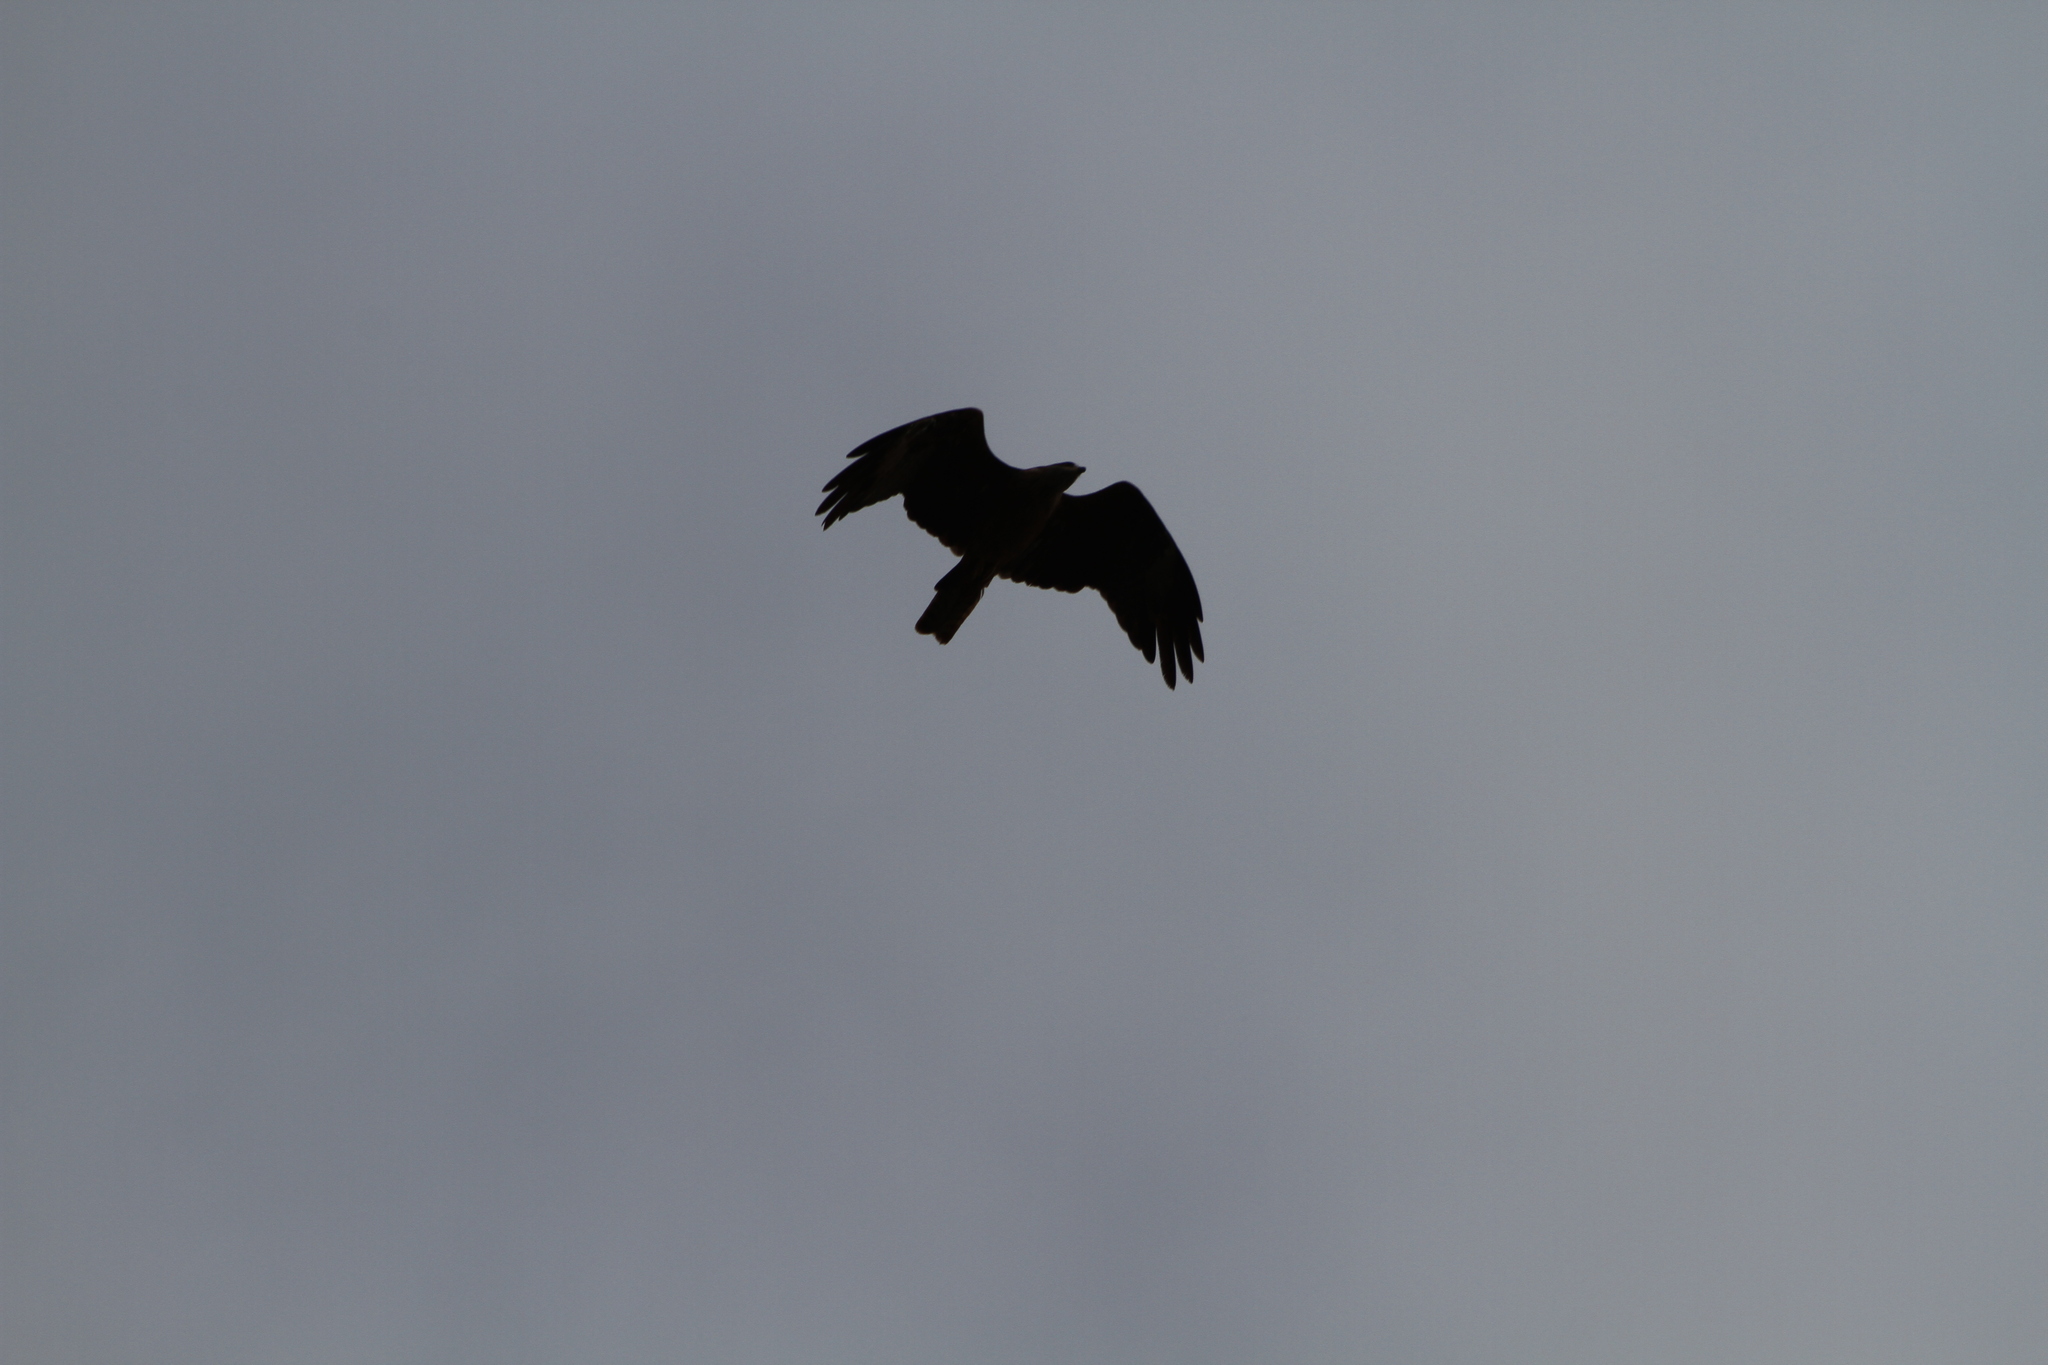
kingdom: Animalia
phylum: Chordata
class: Aves
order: Accipitriformes
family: Accipitridae
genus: Milvus
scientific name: Milvus migrans
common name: Black kite
